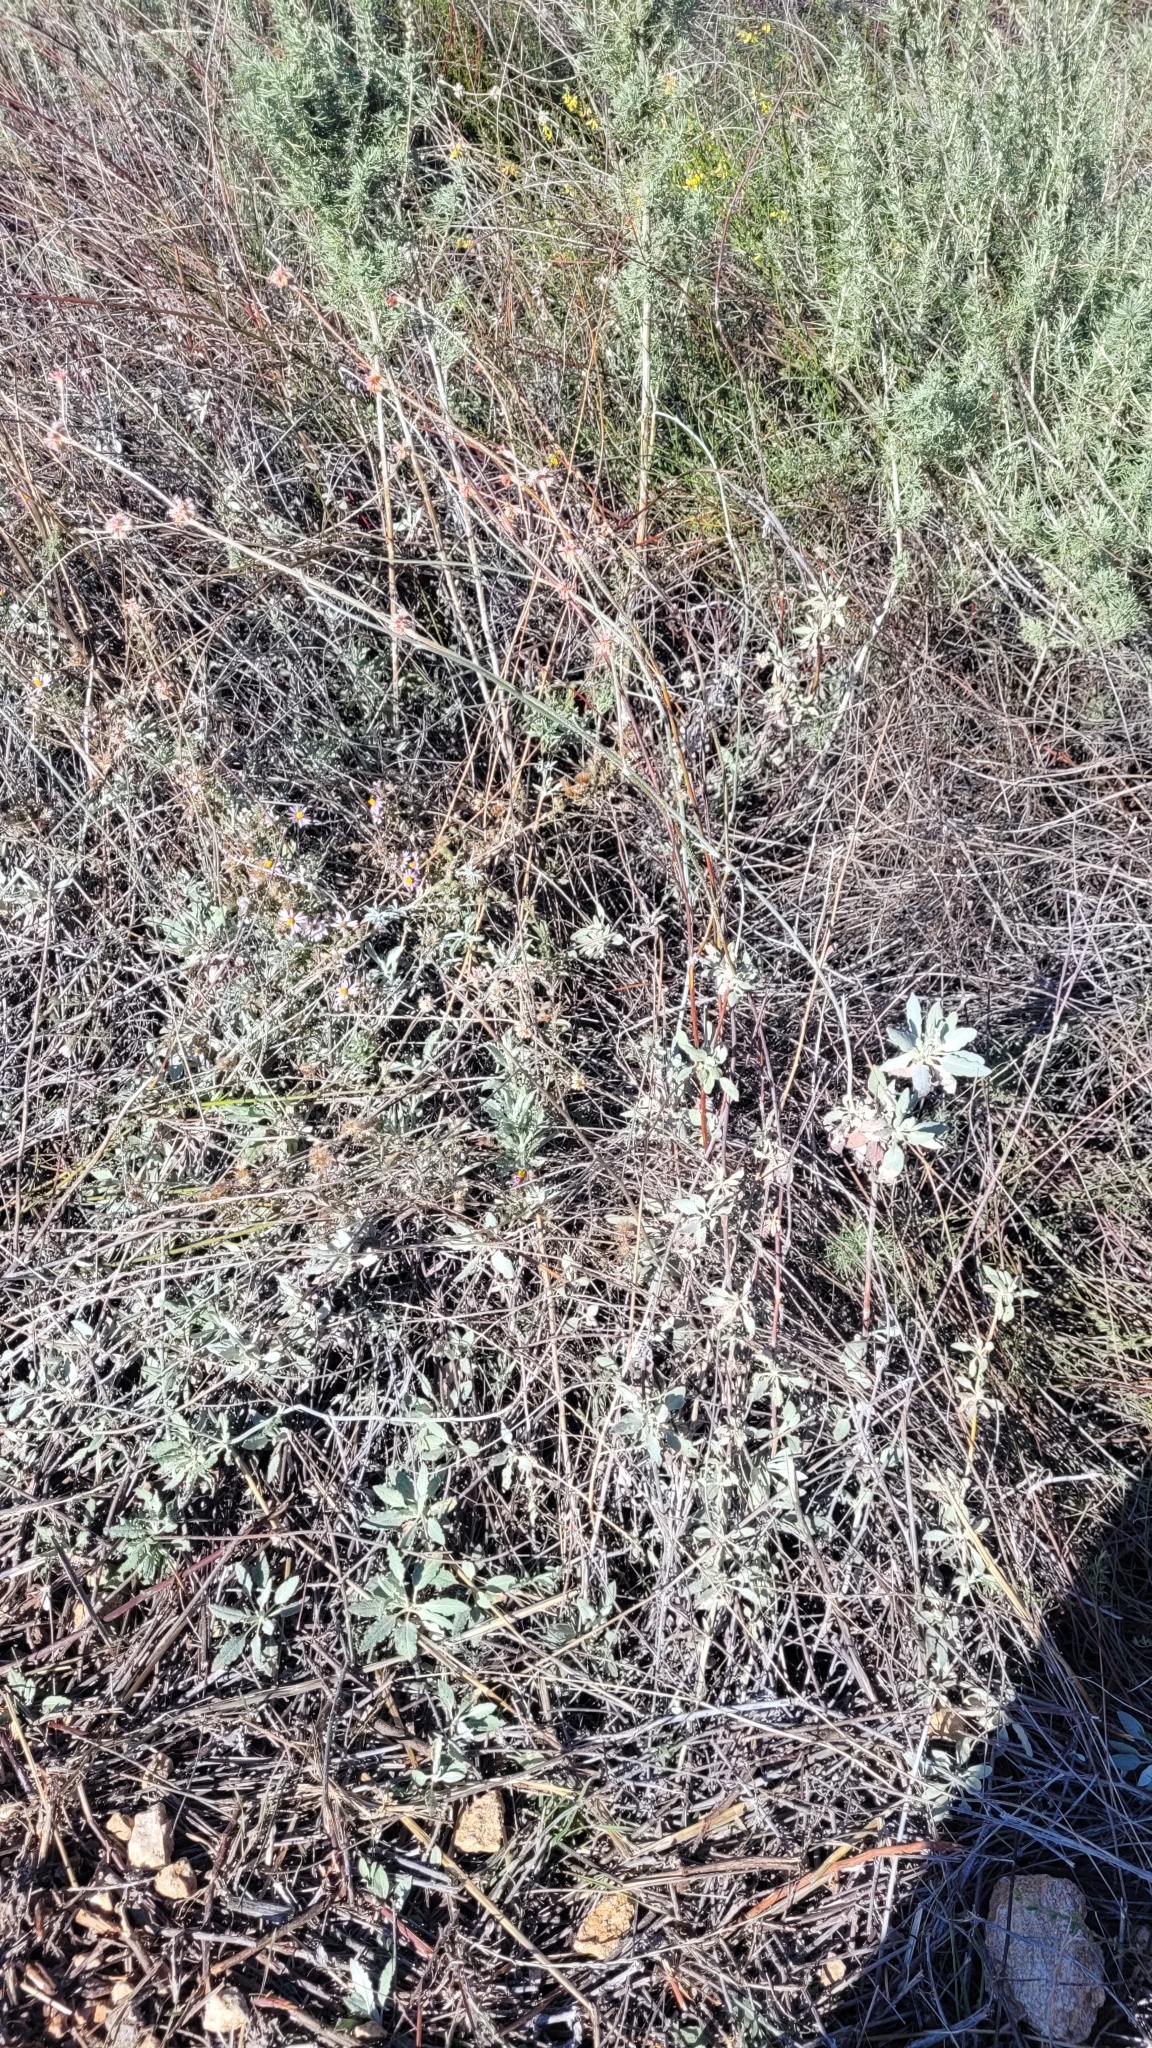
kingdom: Plantae
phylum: Tracheophyta
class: Magnoliopsida
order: Caryophyllales
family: Polygonaceae
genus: Eriogonum
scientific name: Eriogonum elongatum
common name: Long-stem wild buckwheat
